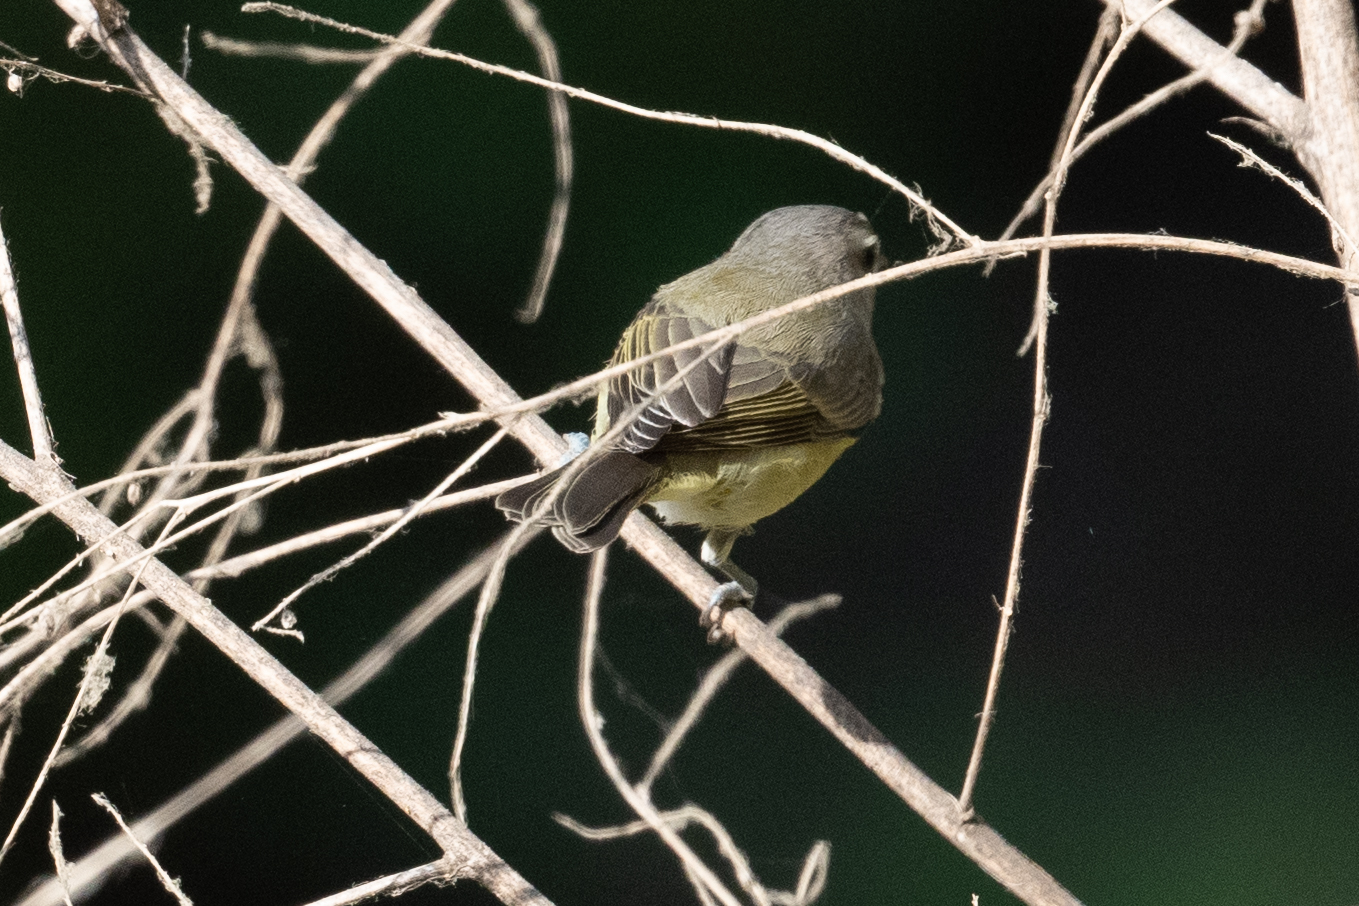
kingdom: Animalia
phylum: Chordata
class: Aves
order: Passeriformes
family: Vireonidae
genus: Vireo
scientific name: Vireo gilvus
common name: Warbling vireo
